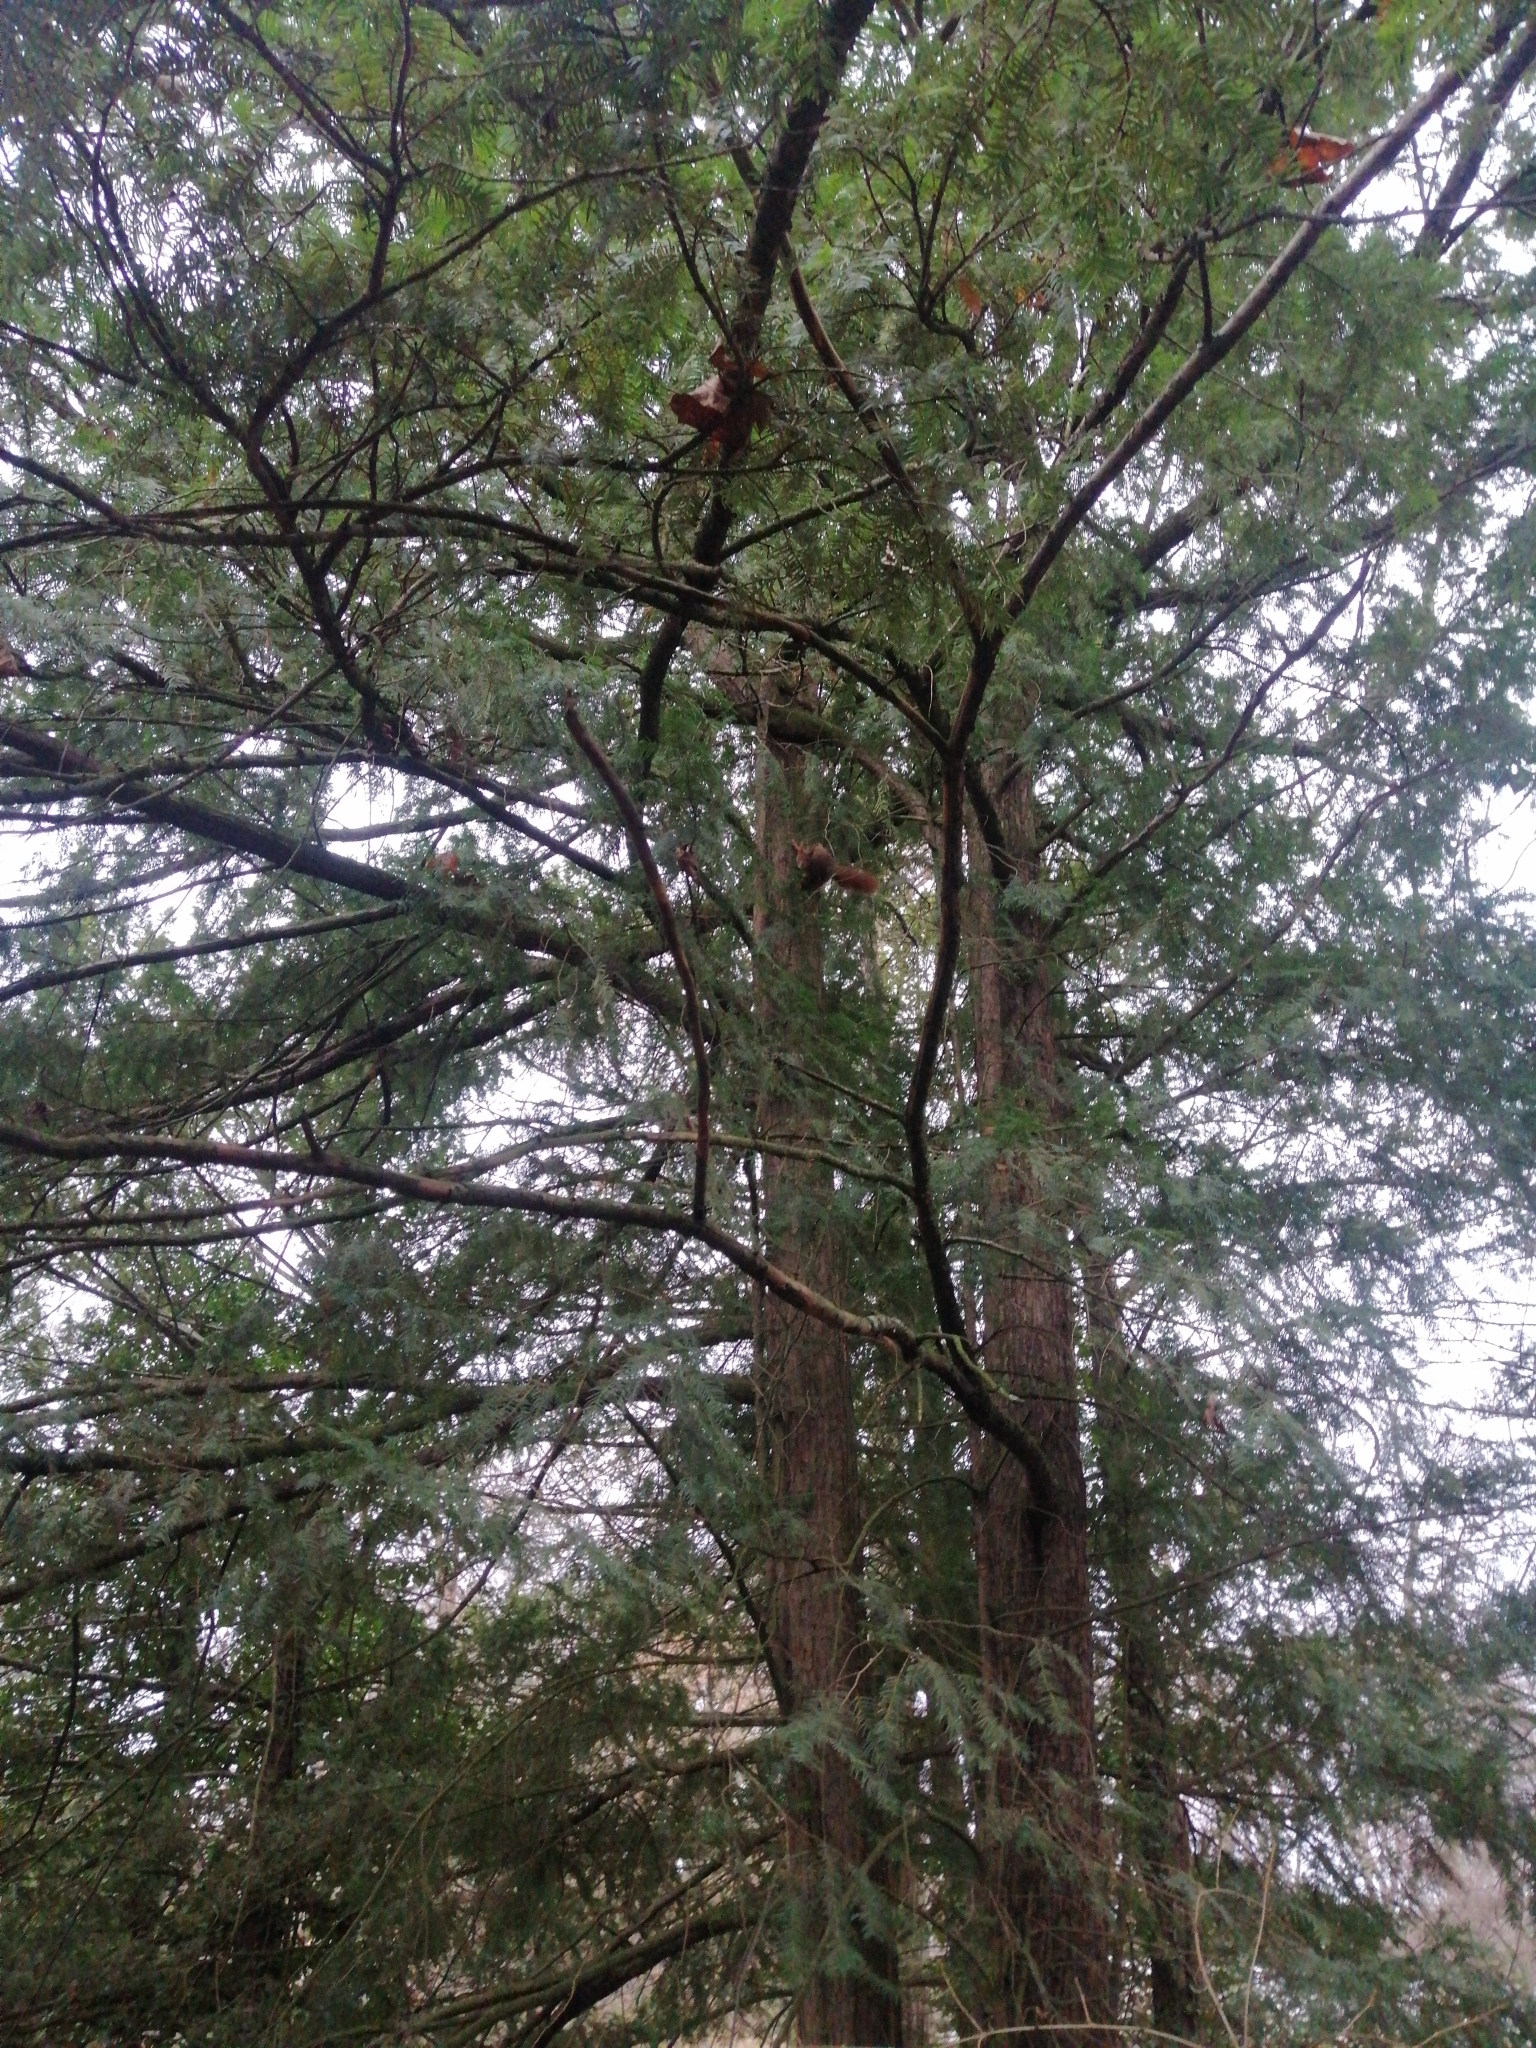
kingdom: Animalia
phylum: Chordata
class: Mammalia
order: Rodentia
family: Sciuridae
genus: Sciurus
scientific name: Sciurus vulgaris
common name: Eurasian red squirrel
